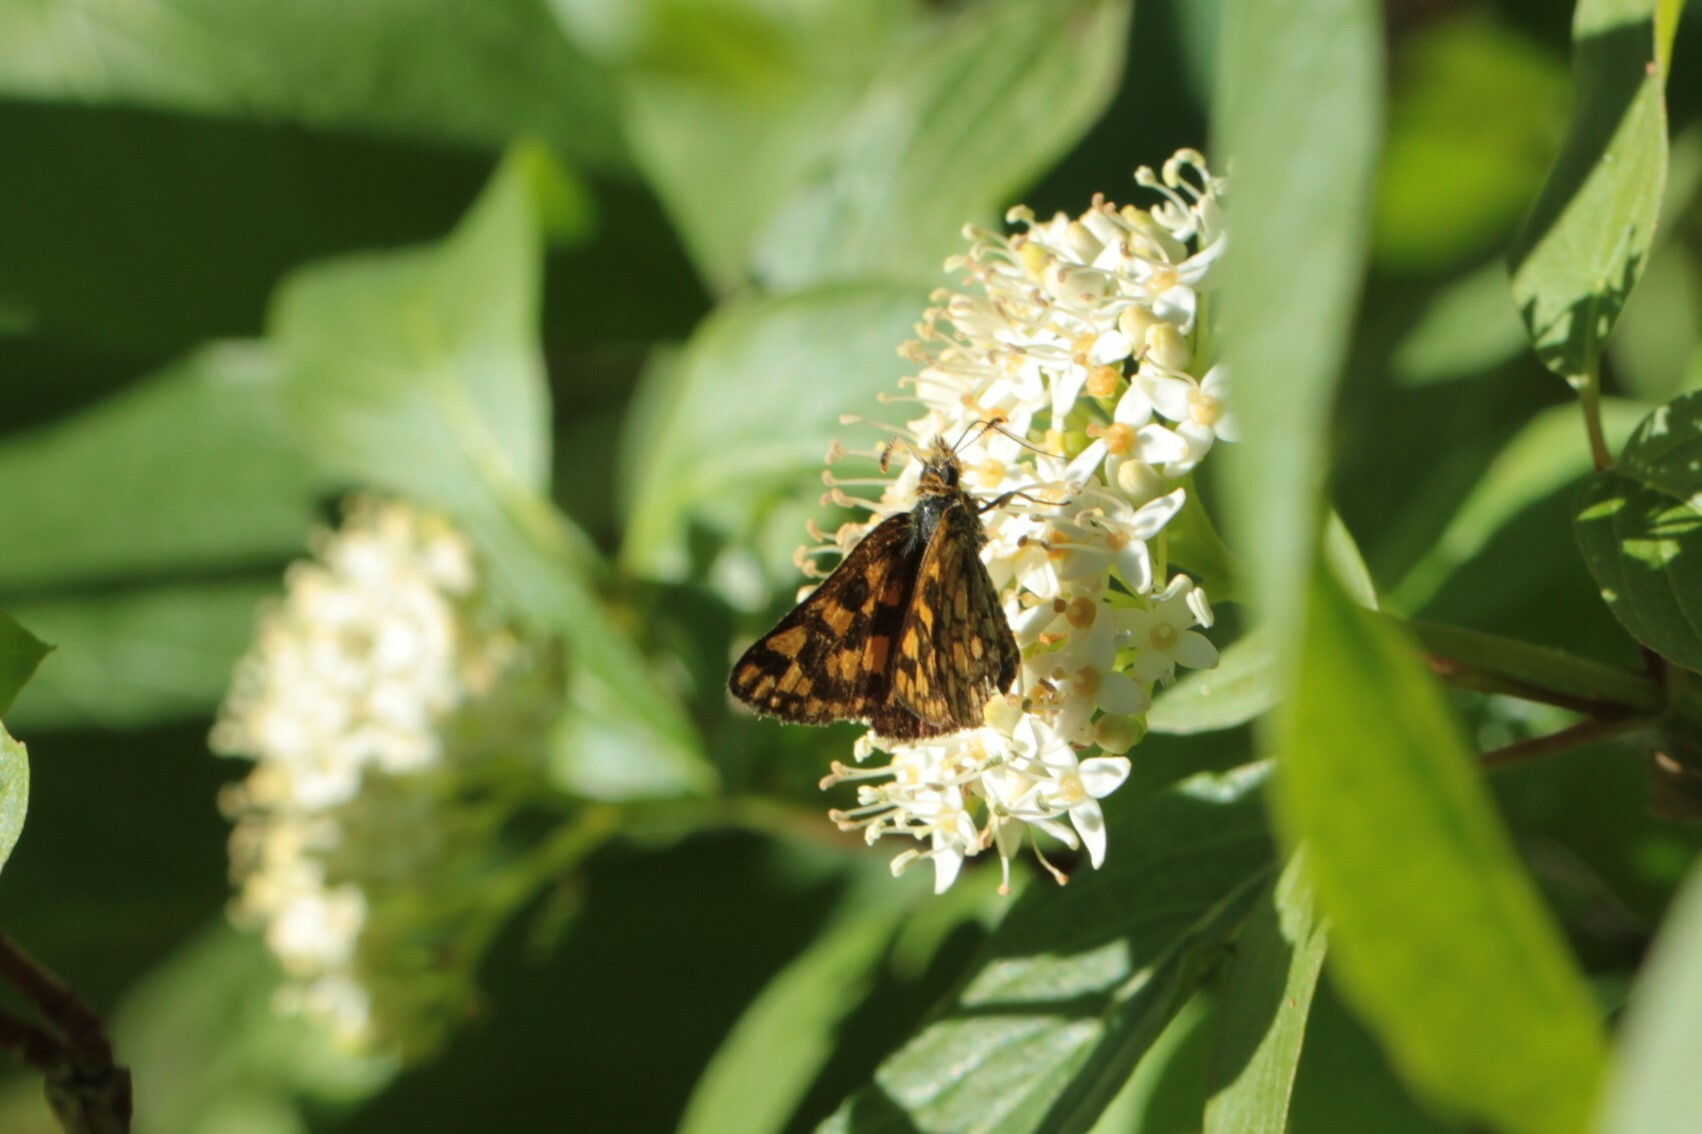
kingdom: Animalia
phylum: Arthropoda
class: Insecta
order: Lepidoptera
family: Hesperiidae
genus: Carterocephalus
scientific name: Carterocephalus skada
